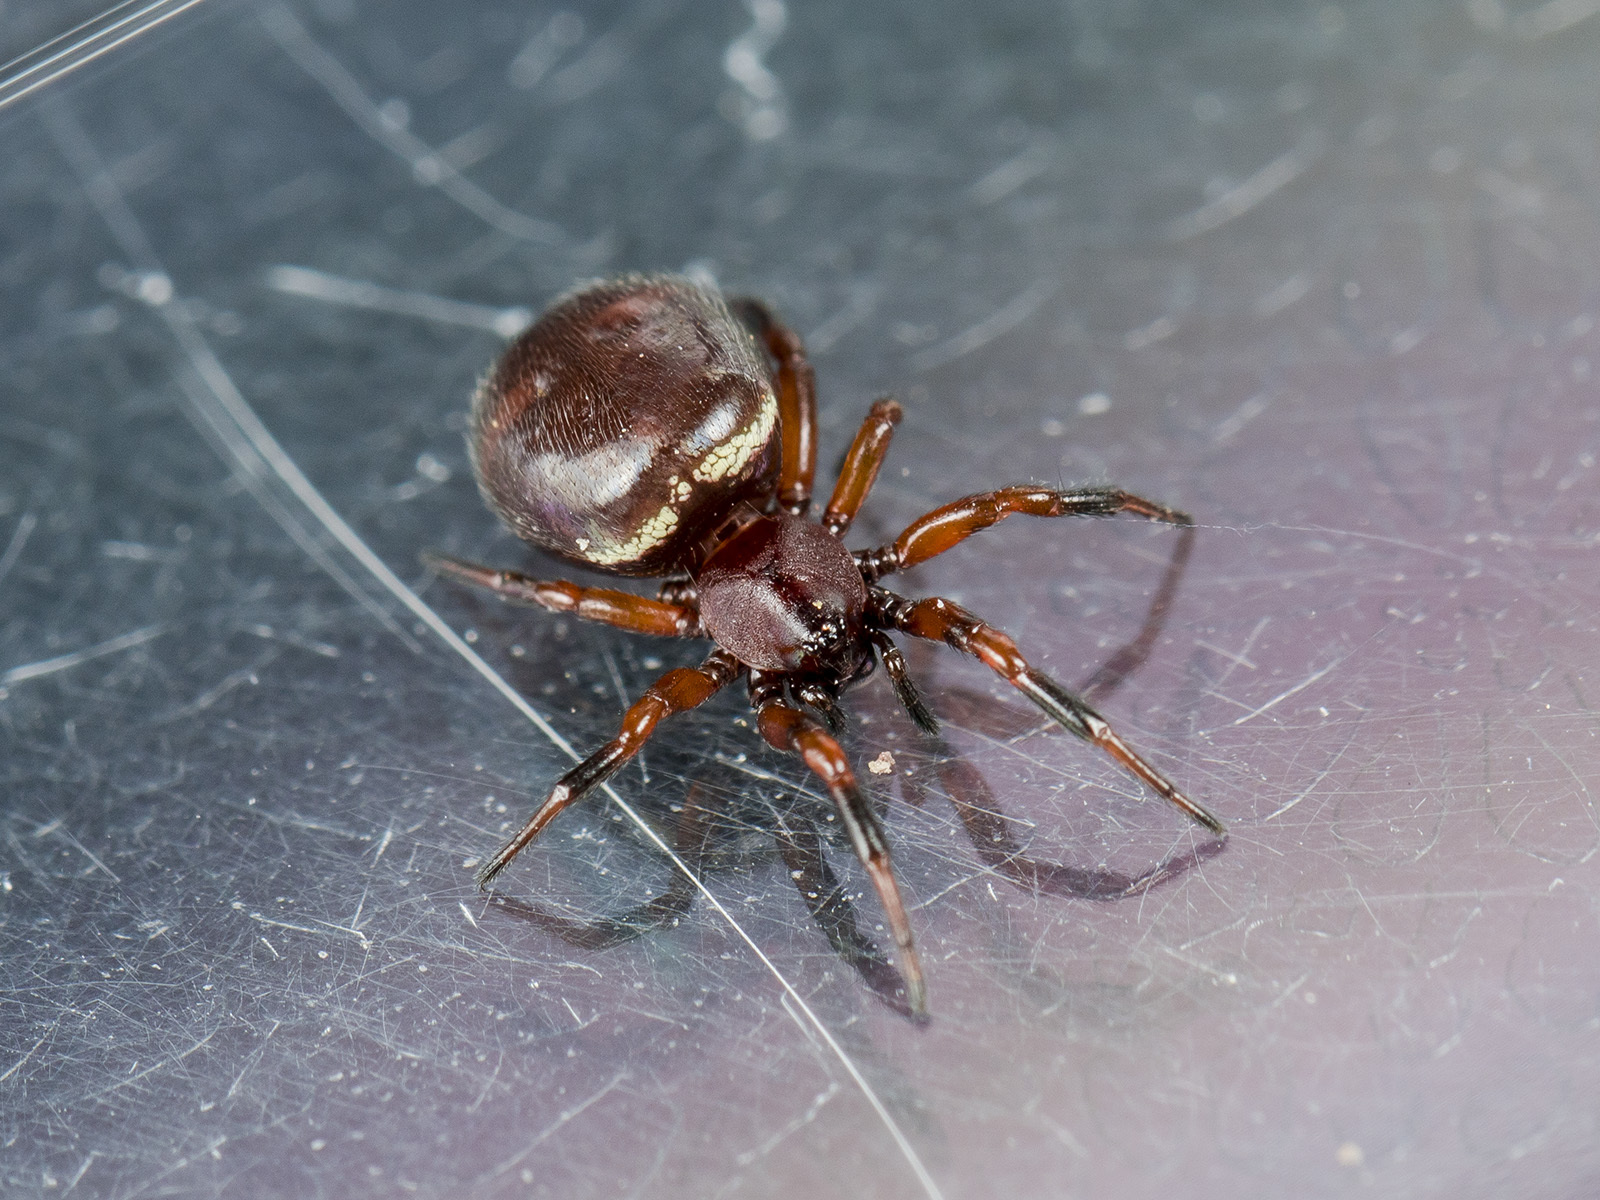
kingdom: Animalia
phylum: Arthropoda
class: Arachnida
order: Araneae
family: Theridiidae
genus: Asagena
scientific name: Asagena phalerata
